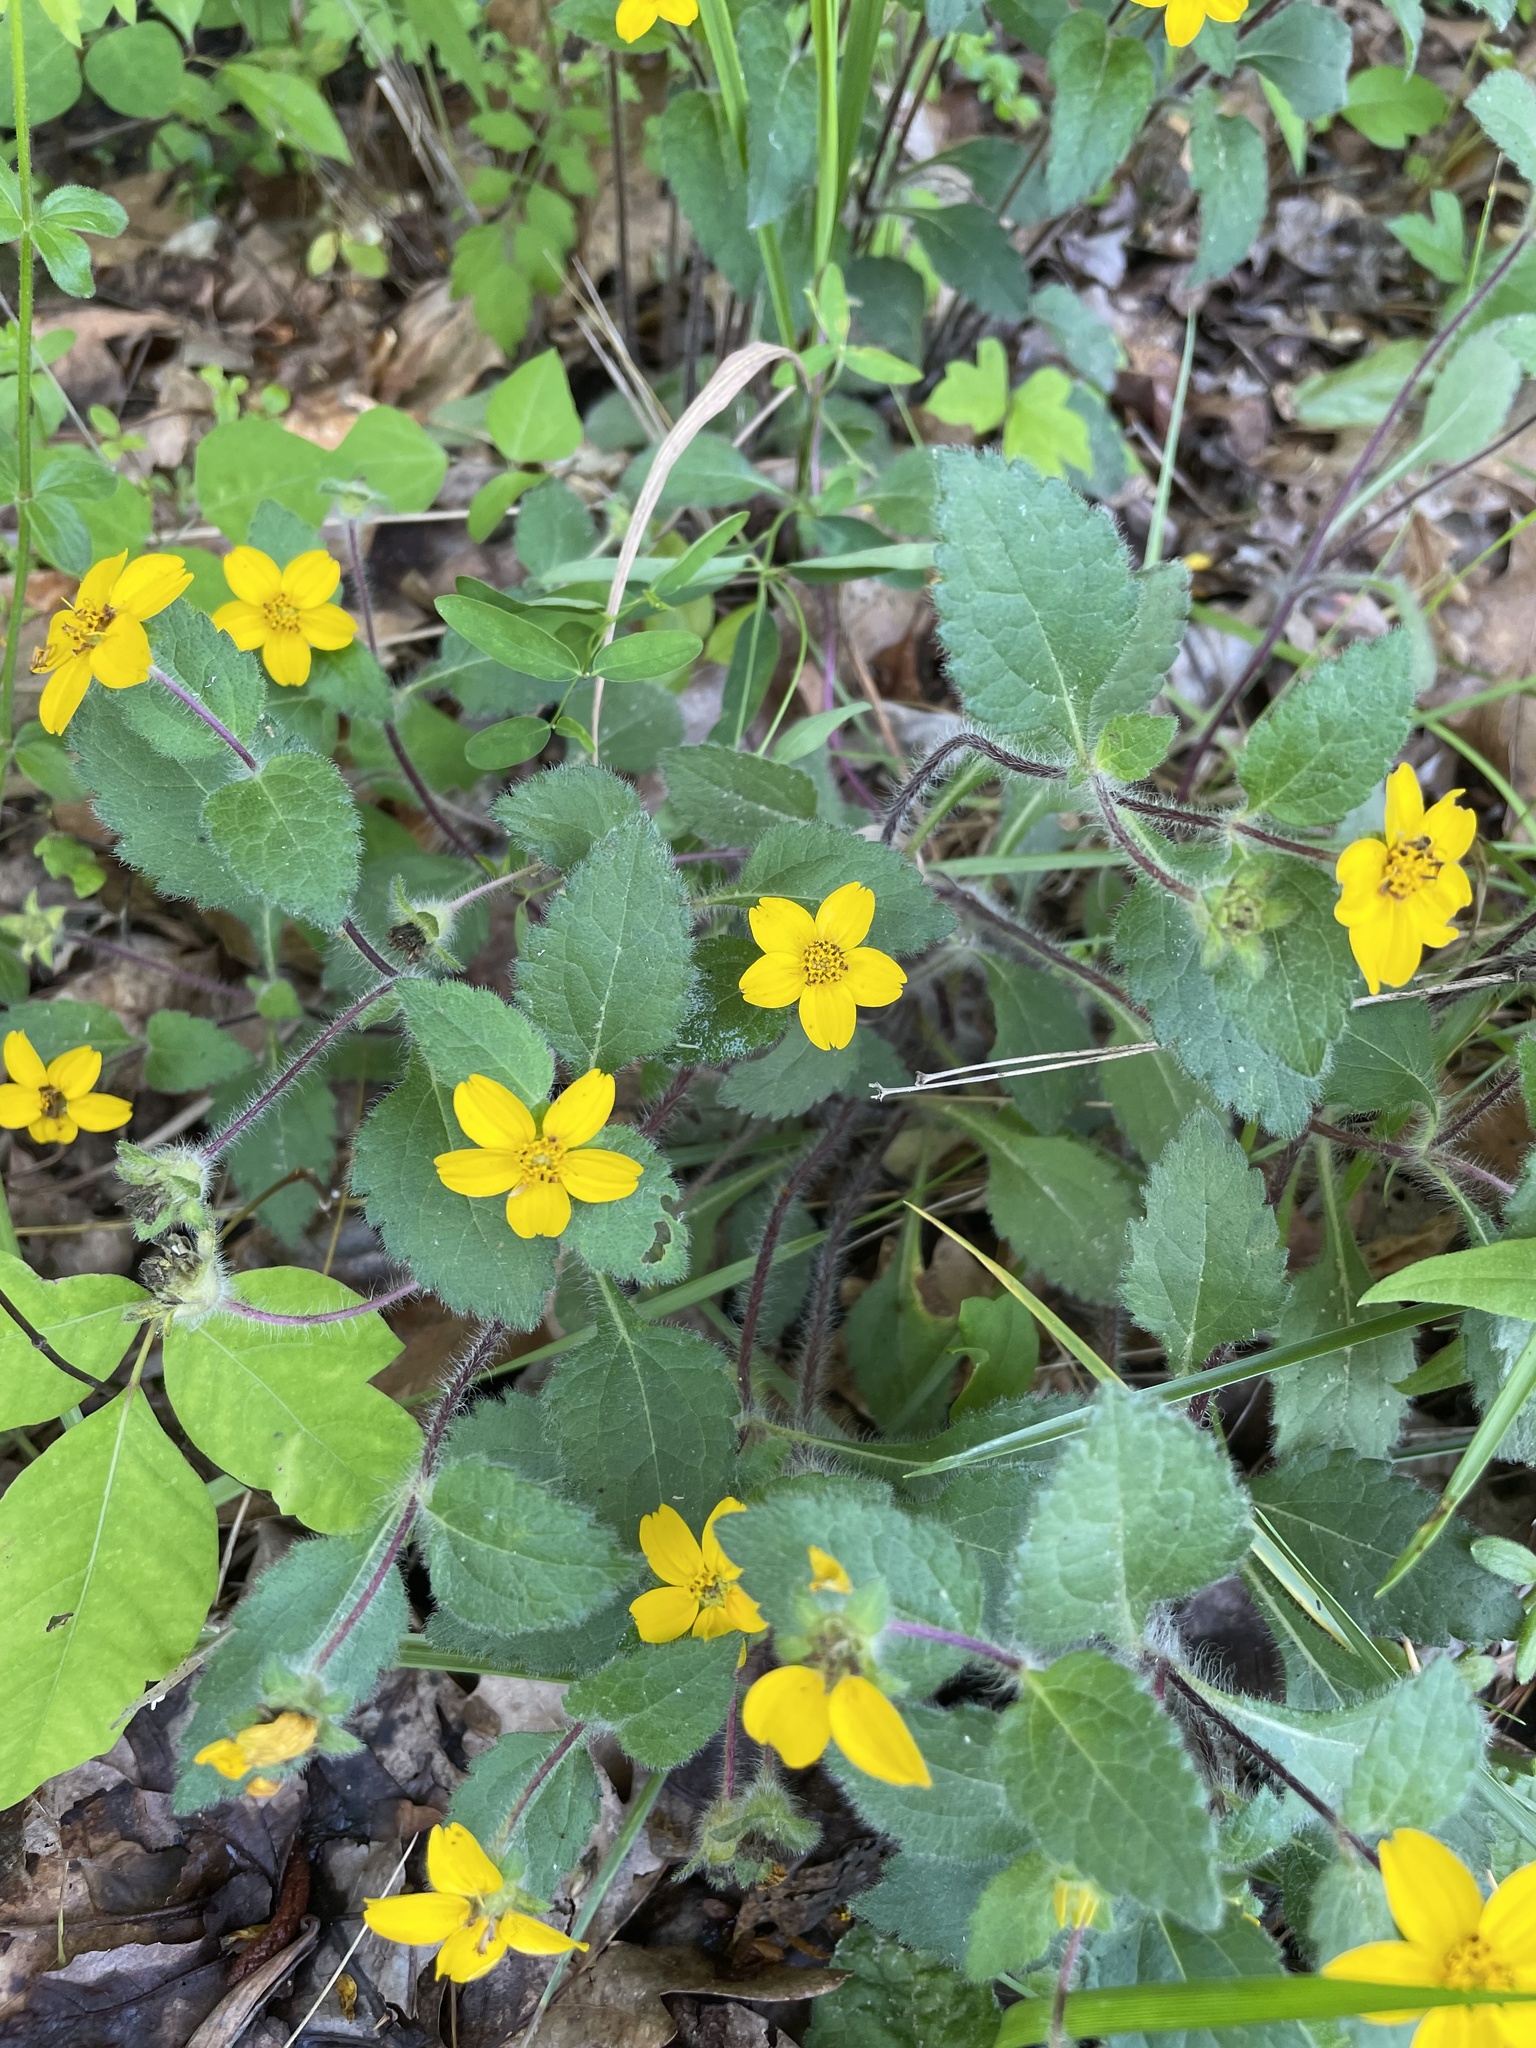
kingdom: Plantae
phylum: Tracheophyta
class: Magnoliopsida
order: Asterales
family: Asteraceae
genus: Chrysogonum
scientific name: Chrysogonum virginianum
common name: Golden-knee
